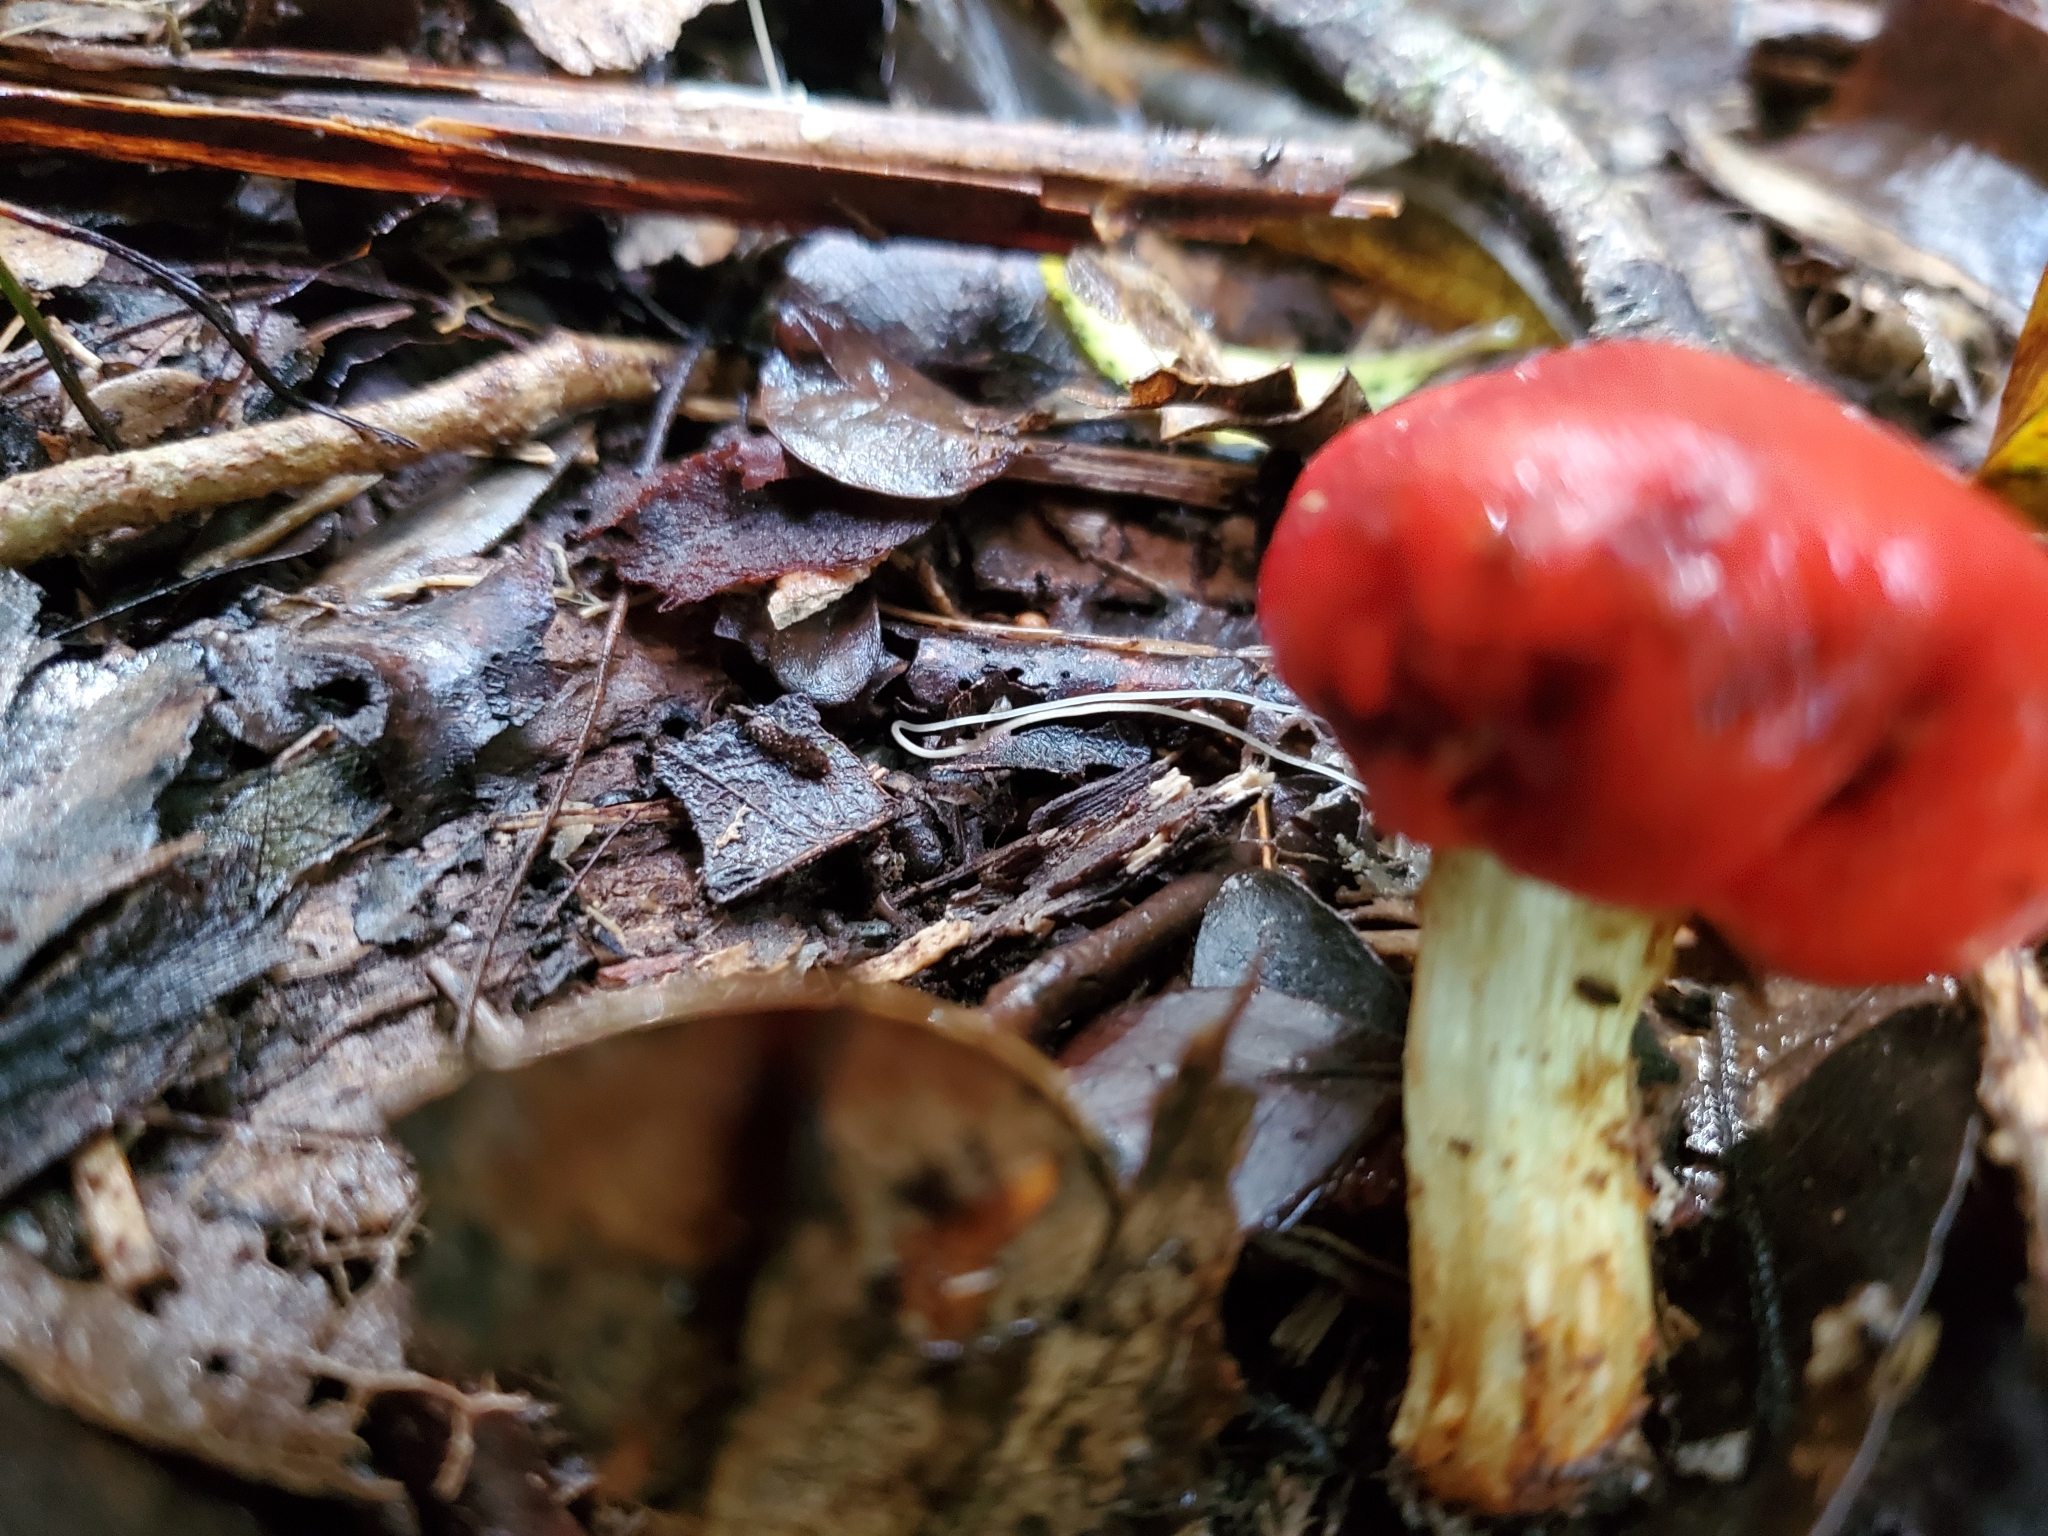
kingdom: Fungi
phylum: Basidiomycota
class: Agaricomycetes
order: Agaricales
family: Strophariaceae
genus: Leratiomyces
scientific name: Leratiomyces erythrocephalus
